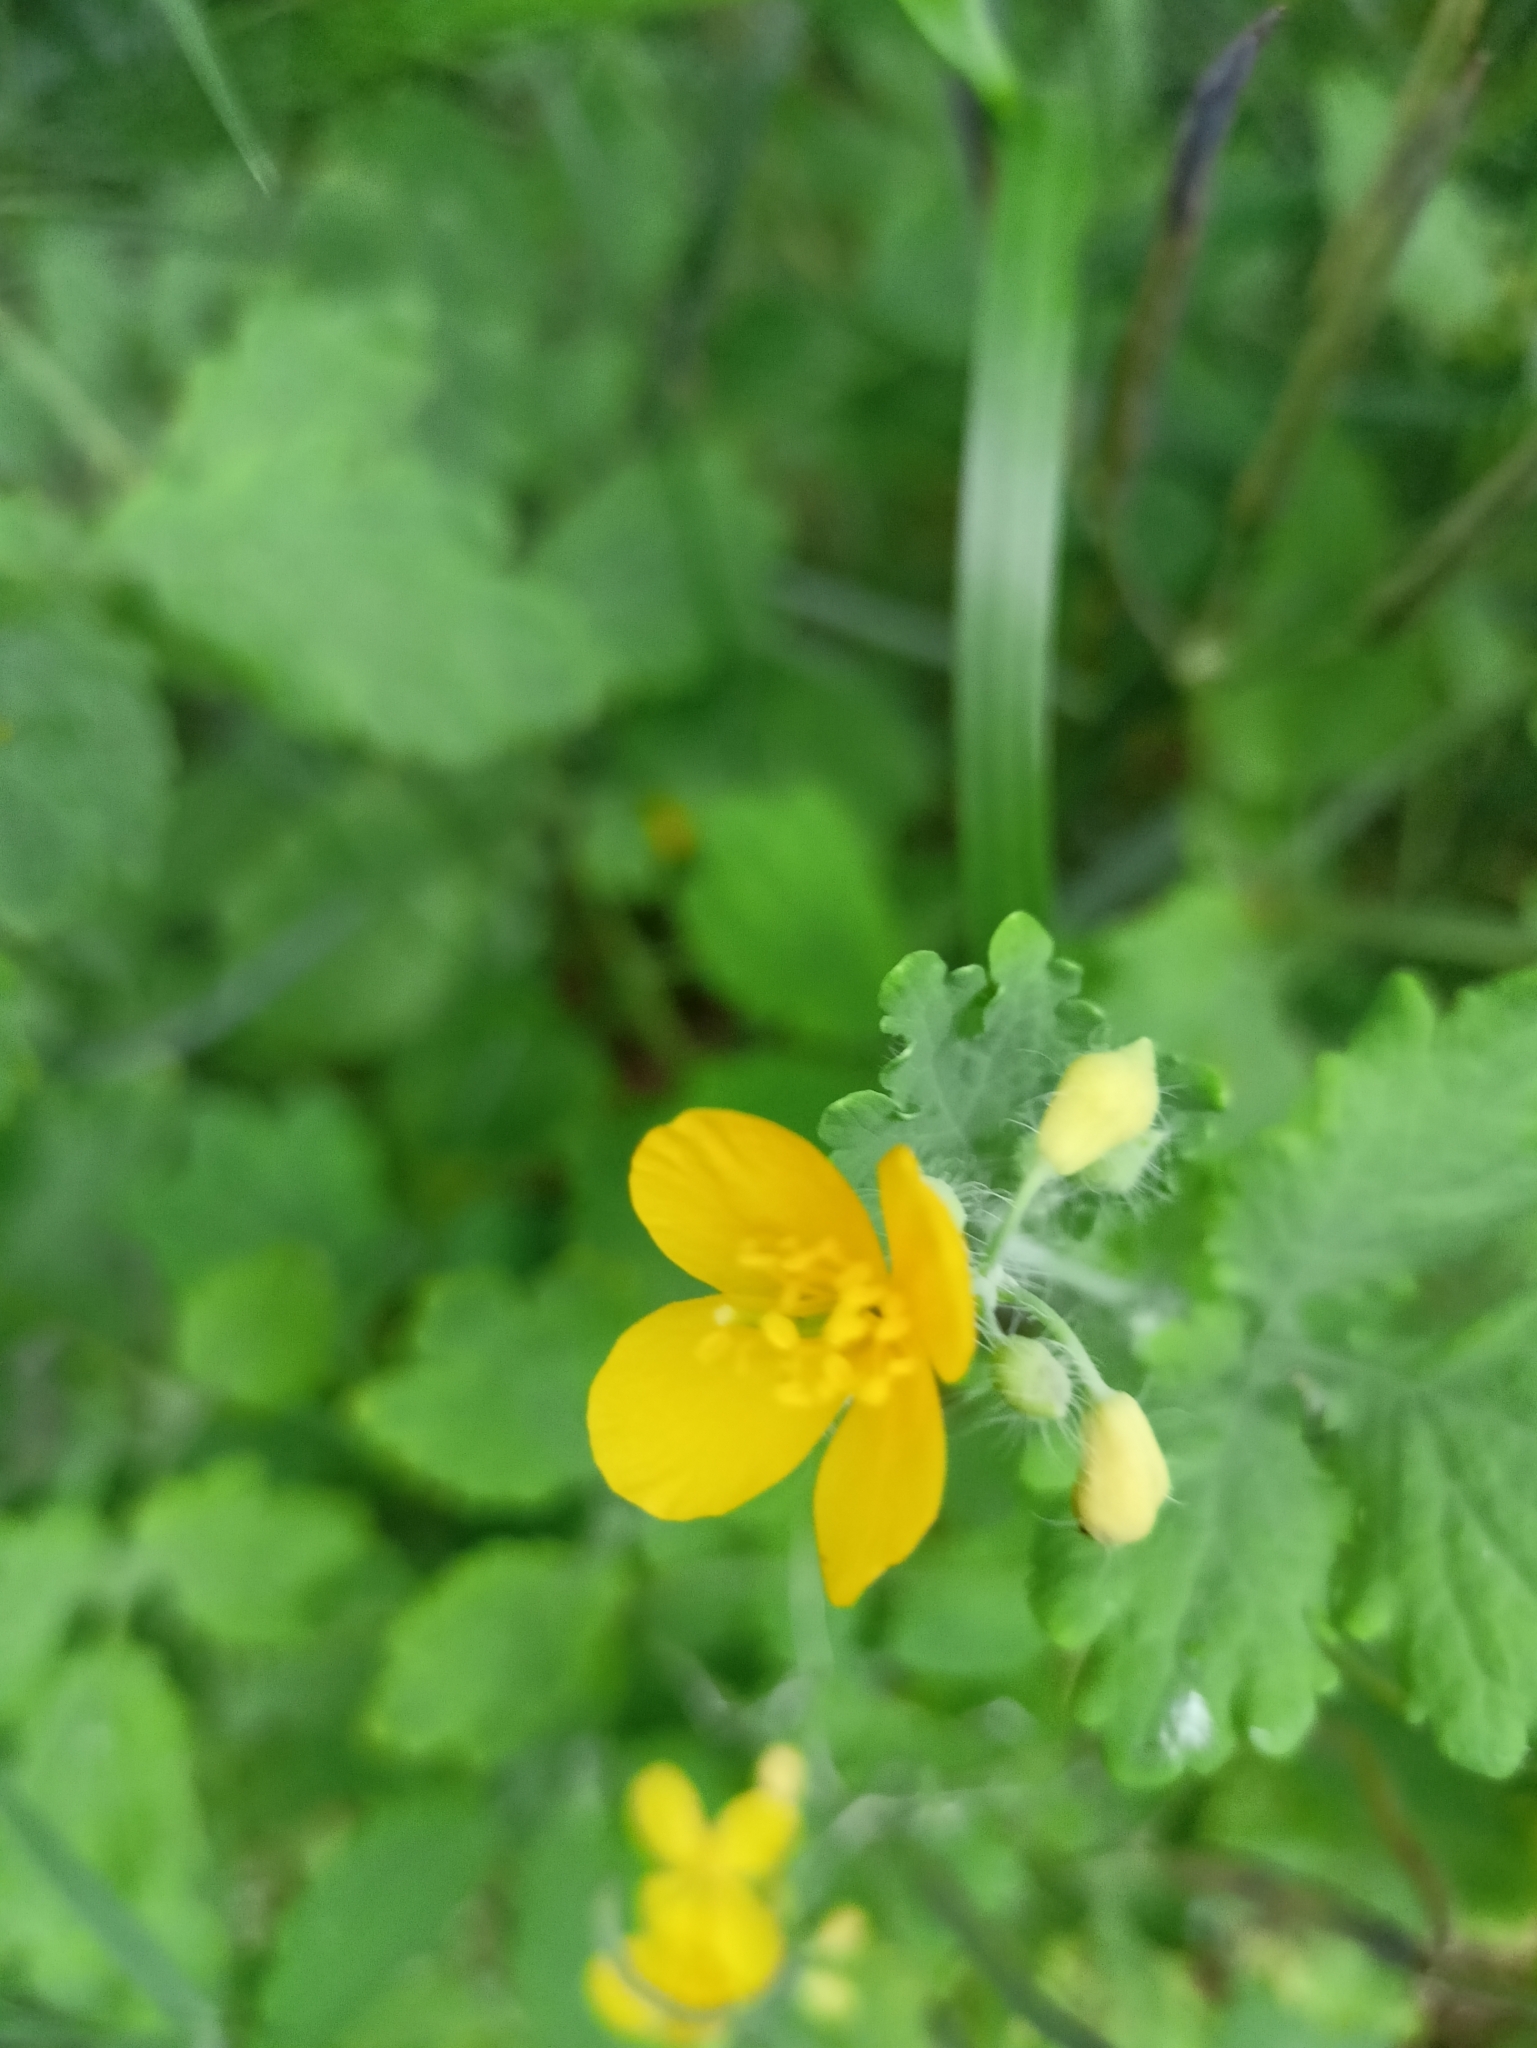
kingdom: Plantae
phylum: Tracheophyta
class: Magnoliopsida
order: Ranunculales
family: Papaveraceae
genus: Chelidonium
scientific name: Chelidonium majus
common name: Greater celandine
